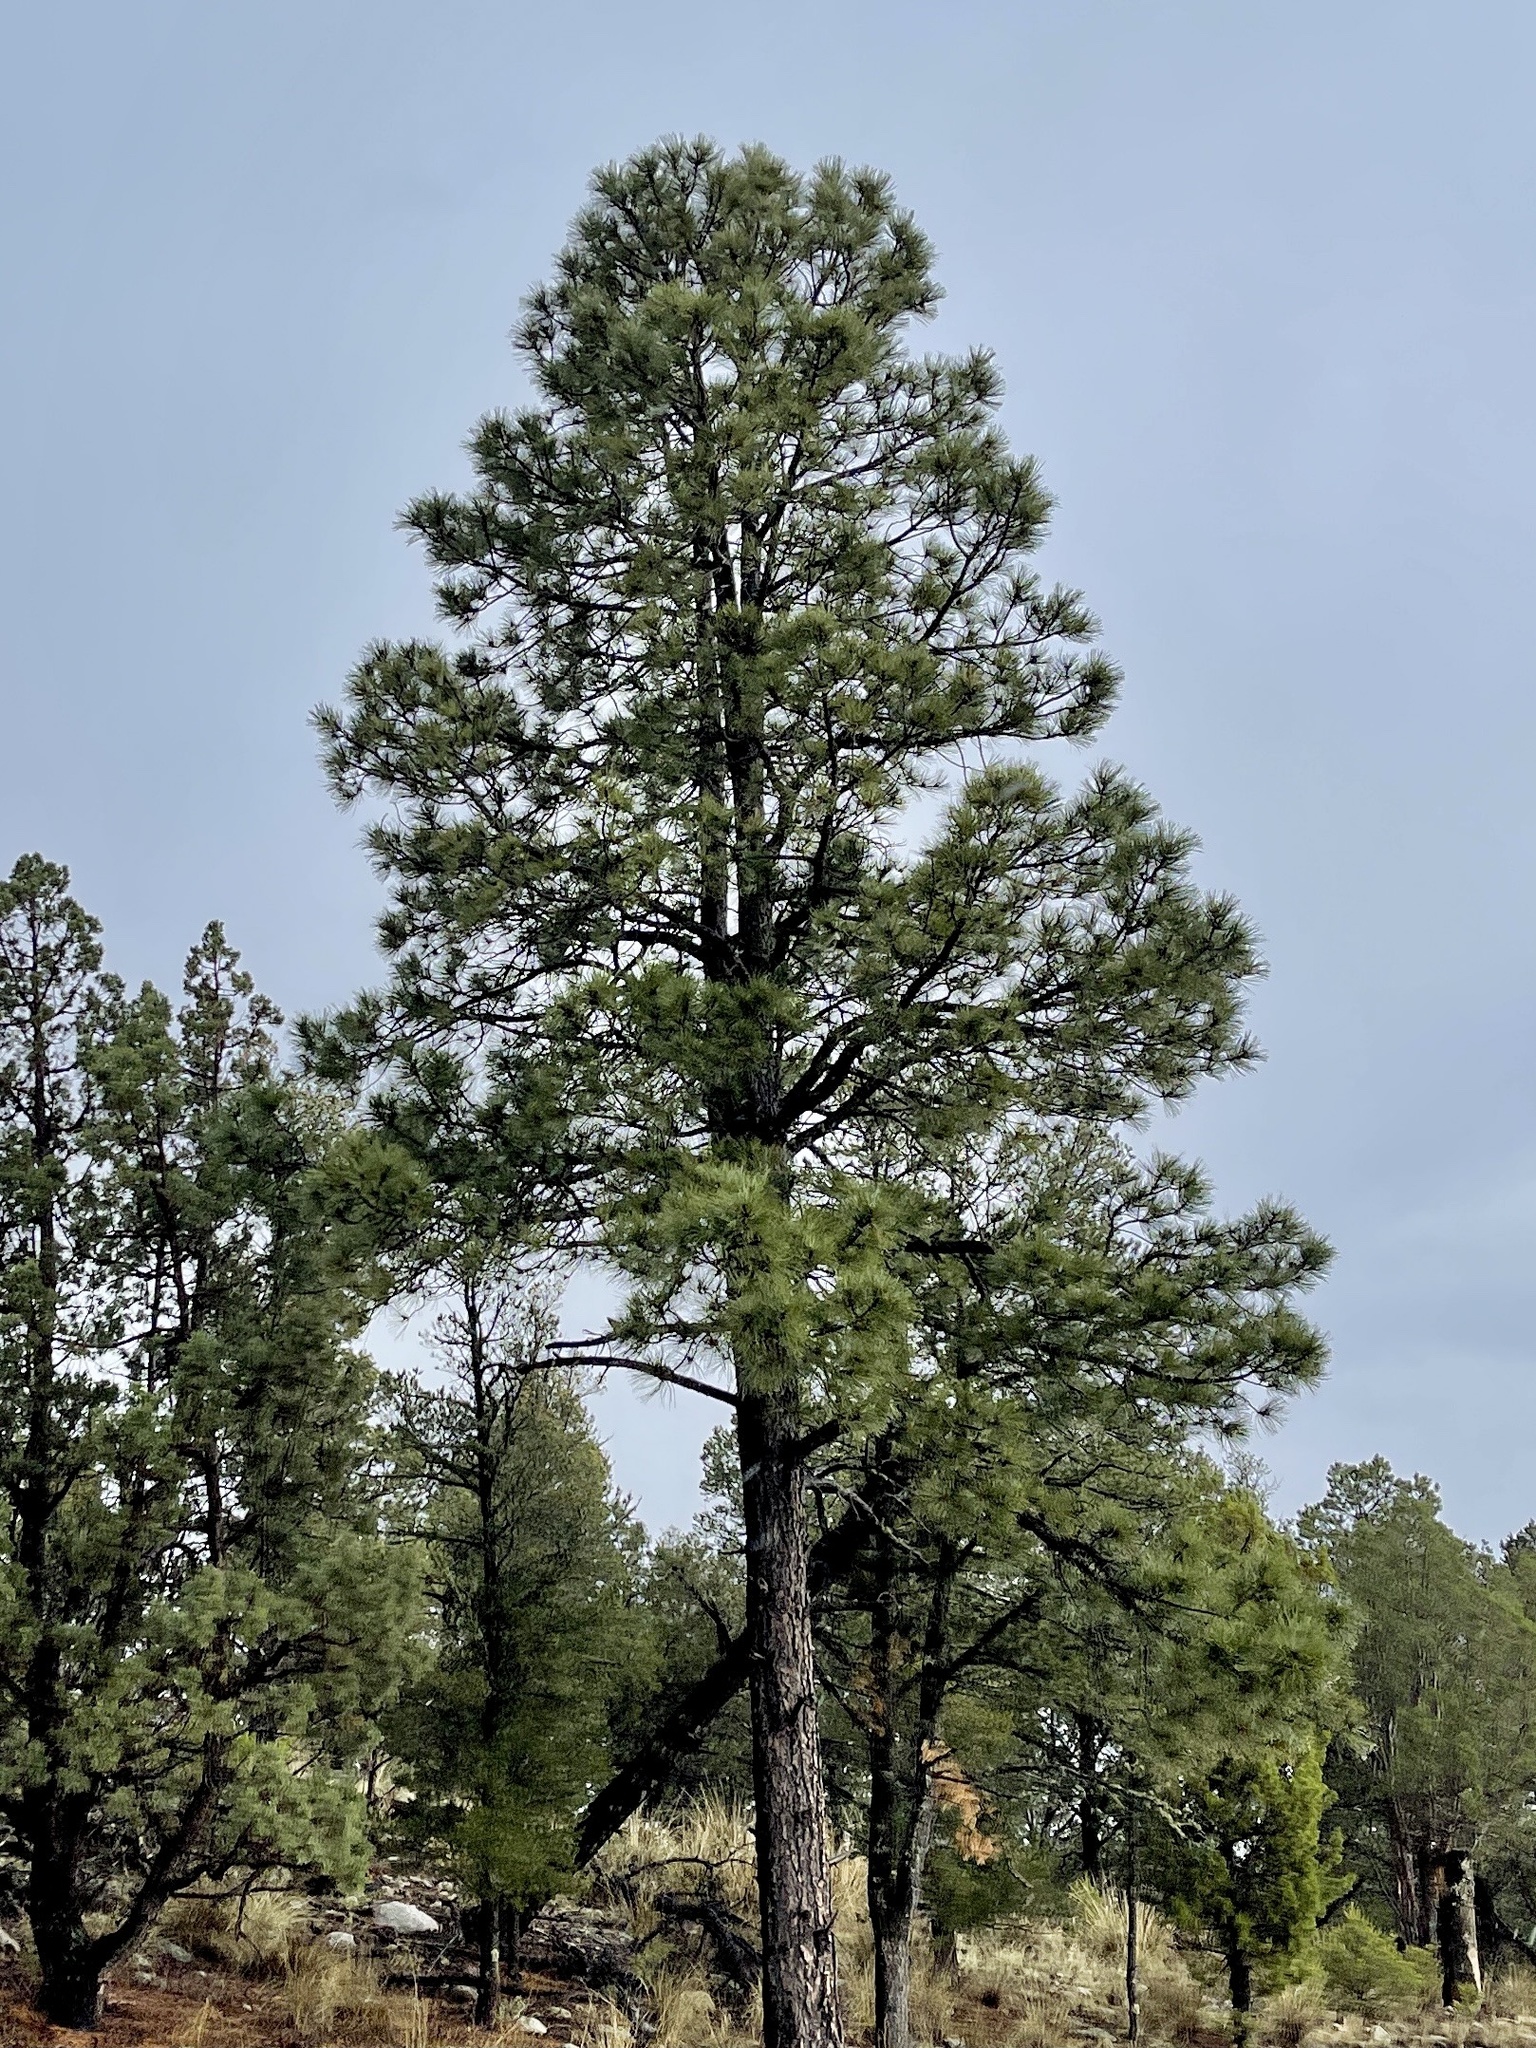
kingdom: Plantae
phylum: Tracheophyta
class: Pinopsida
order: Pinales
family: Pinaceae
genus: Pinus
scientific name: Pinus ponderosa
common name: Western yellow-pine
